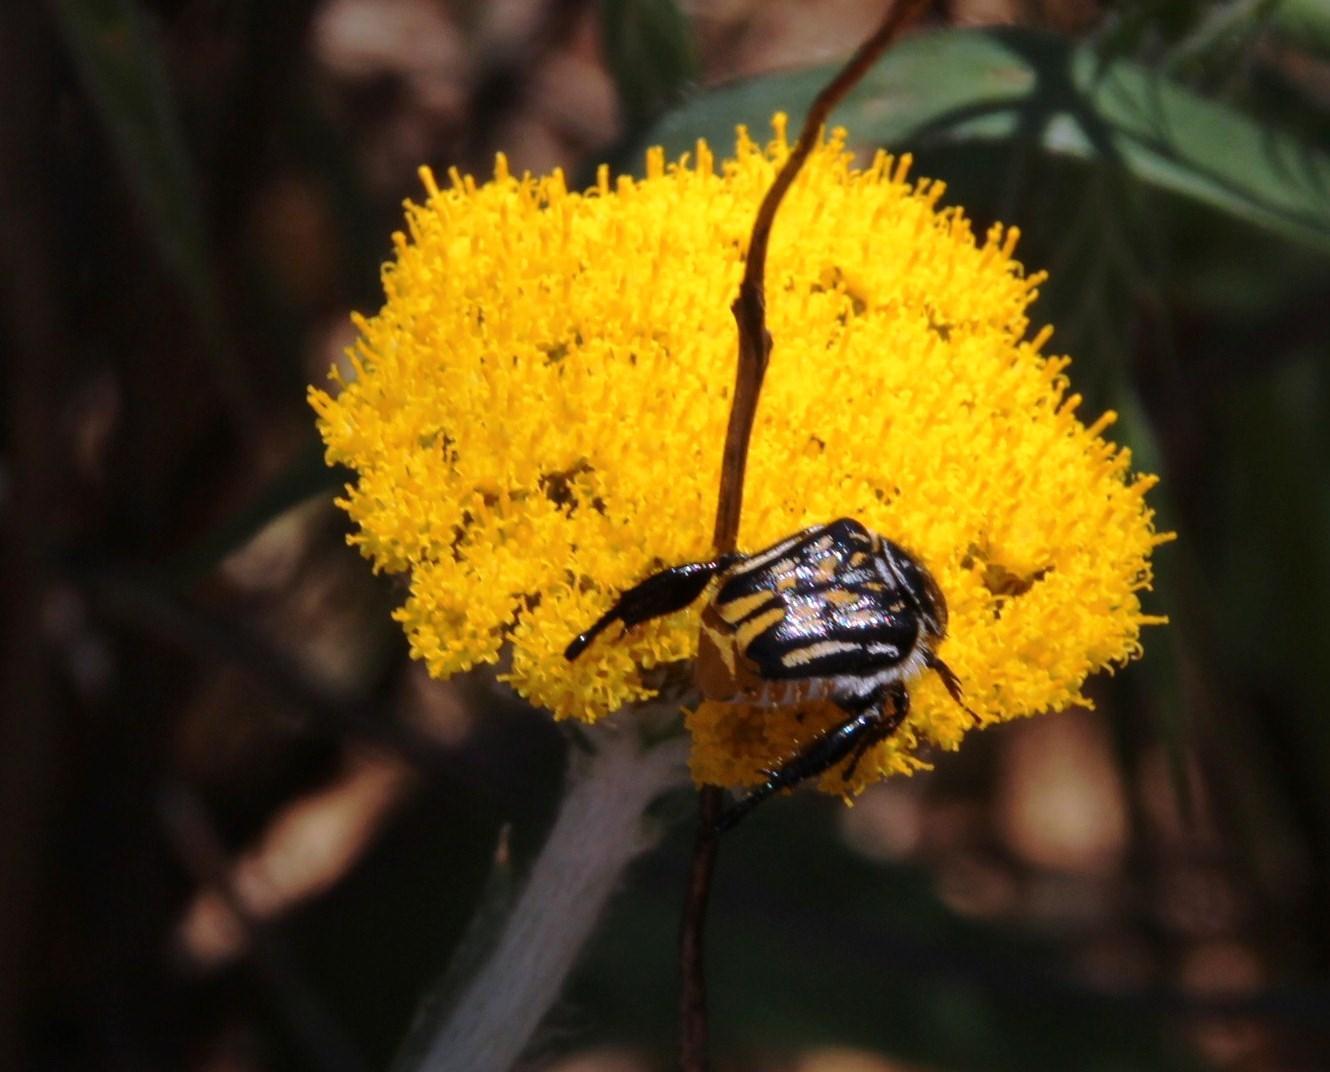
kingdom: Animalia
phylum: Arthropoda
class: Insecta
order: Coleoptera
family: Scarabaeidae
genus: Pachycnema
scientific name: Pachycnema crassipes
